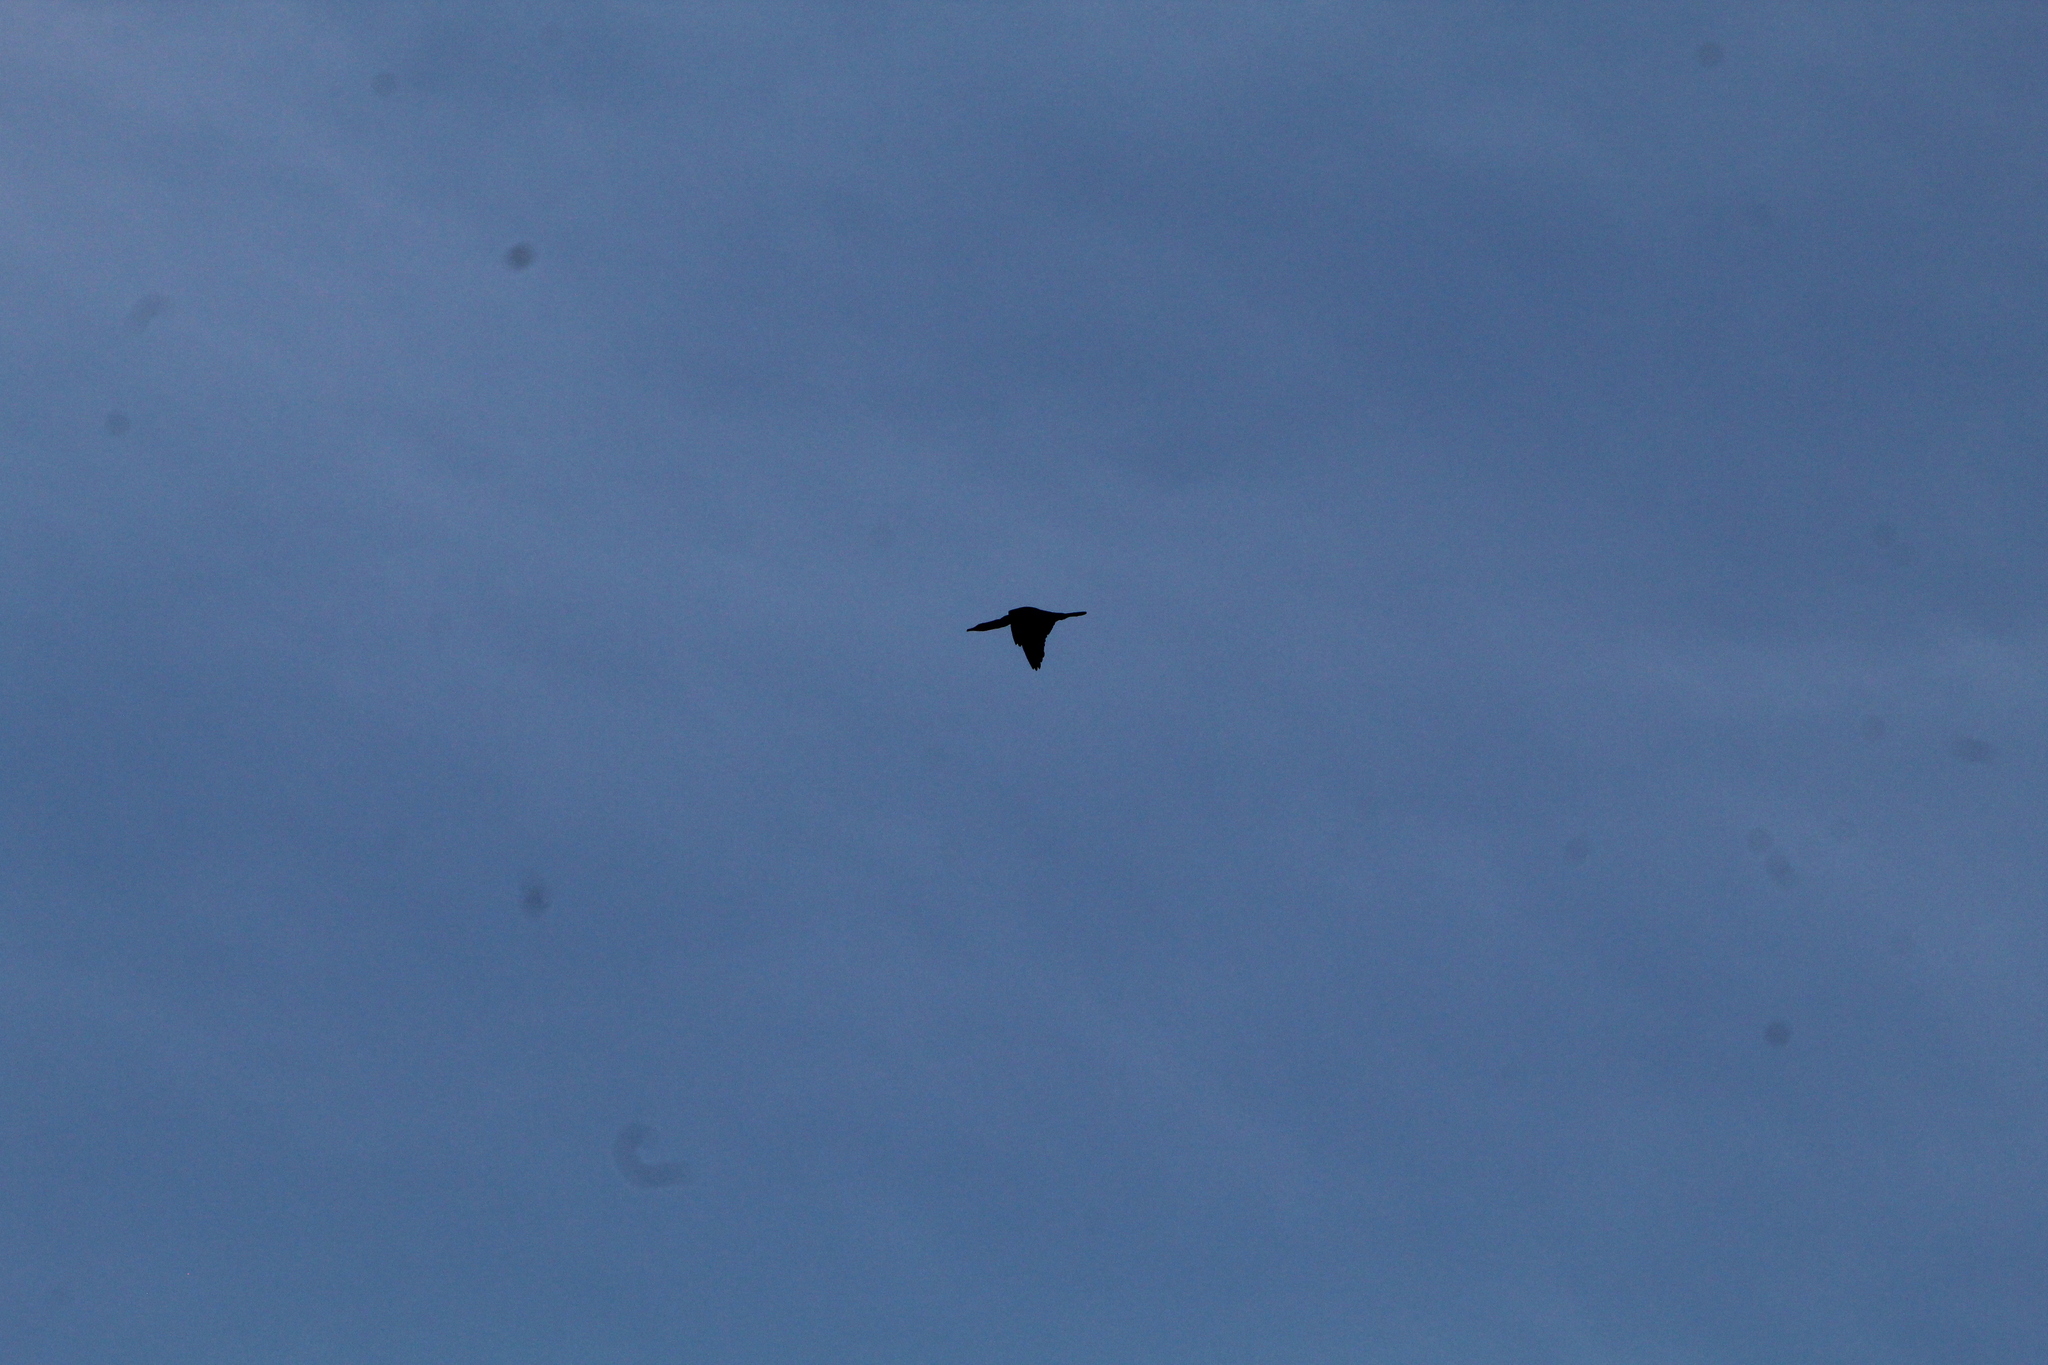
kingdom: Animalia
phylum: Chordata
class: Aves
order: Suliformes
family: Phalacrocoracidae
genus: Phalacrocorax
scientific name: Phalacrocorax carbo
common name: Great cormorant
